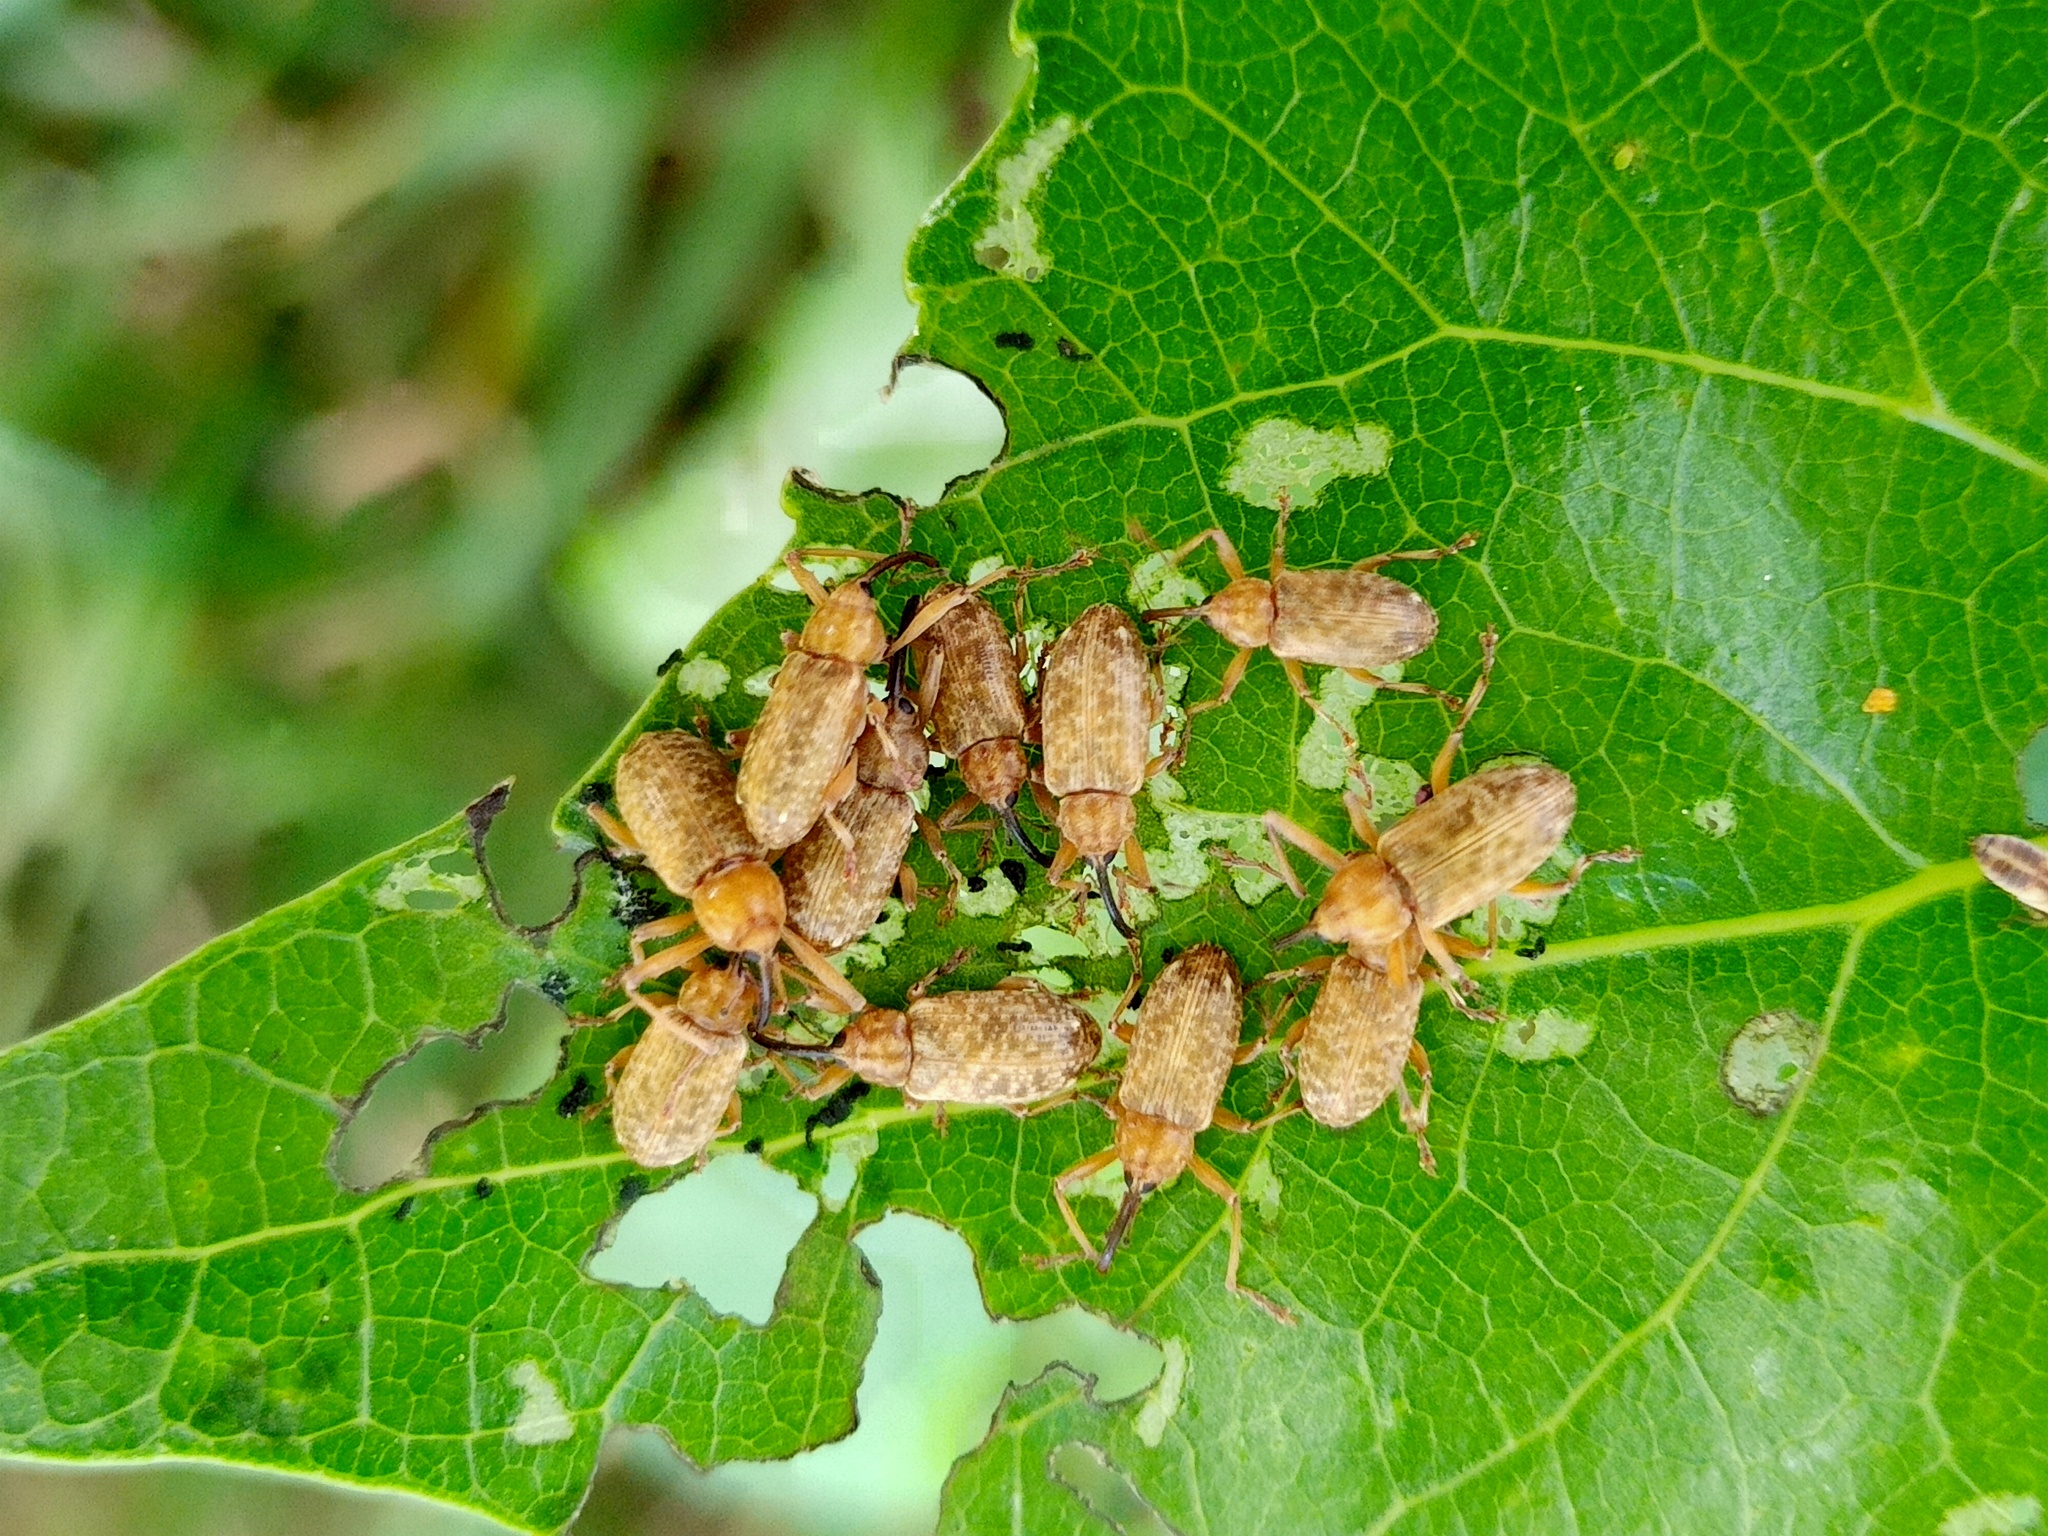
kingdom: Animalia
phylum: Arthropoda
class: Insecta
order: Coleoptera
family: Curculionidae
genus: Dorytomus
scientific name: Dorytomus longimanus
